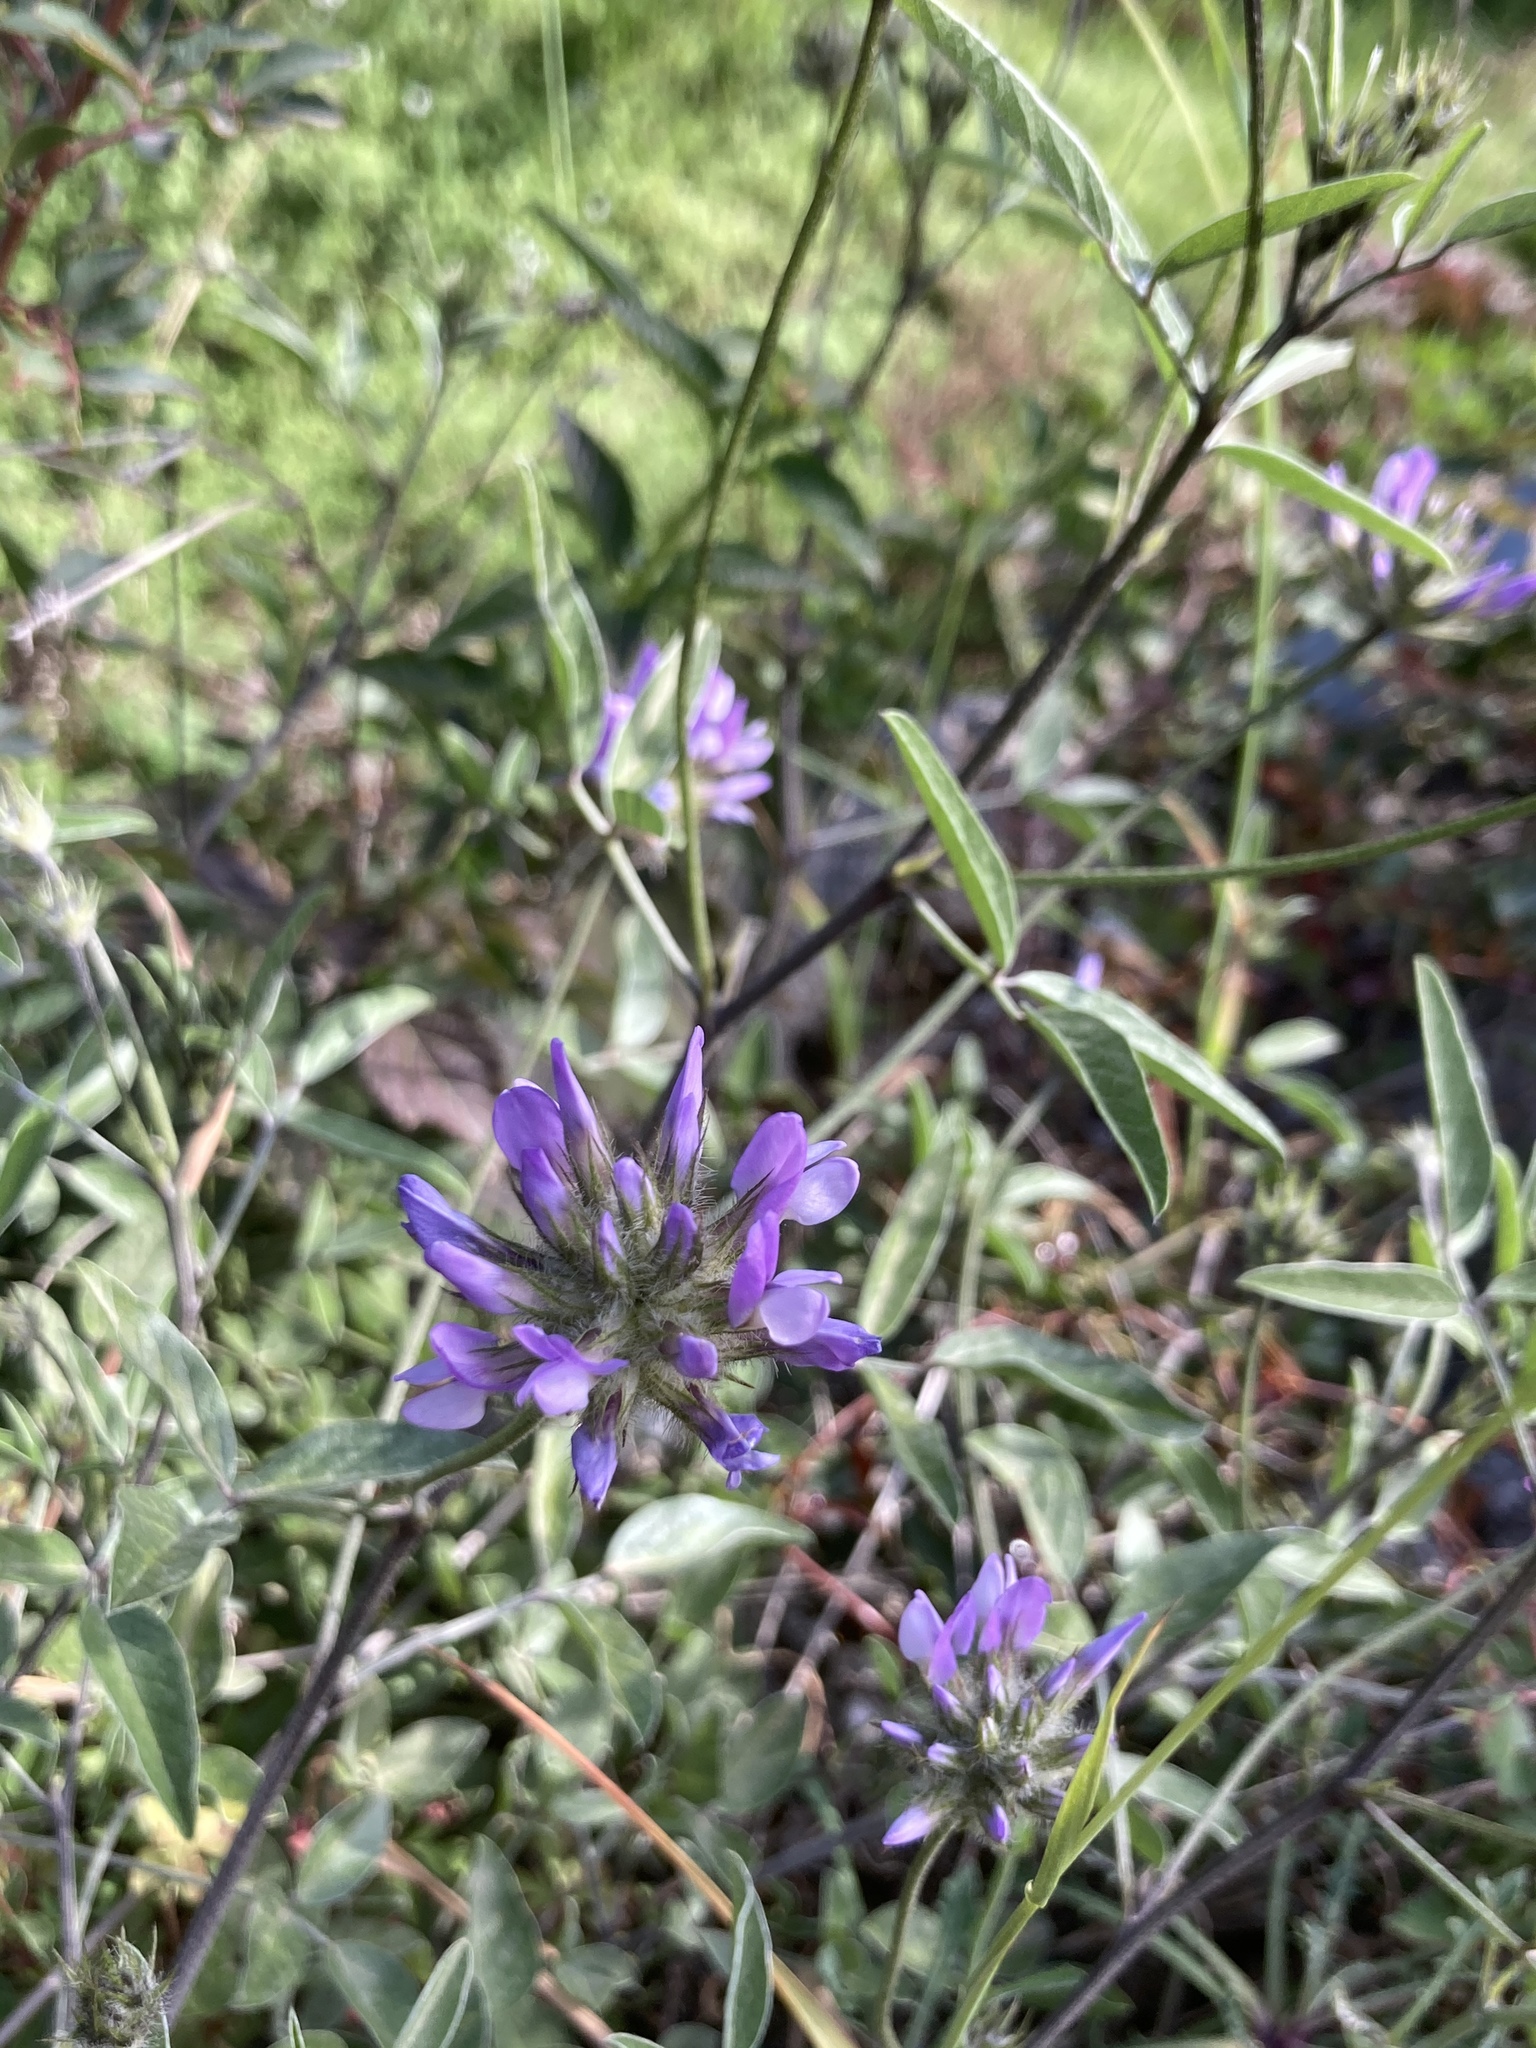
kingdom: Plantae
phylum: Tracheophyta
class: Magnoliopsida
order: Fabales
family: Fabaceae
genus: Bituminaria
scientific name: Bituminaria bituminosa
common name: Arabian pea
